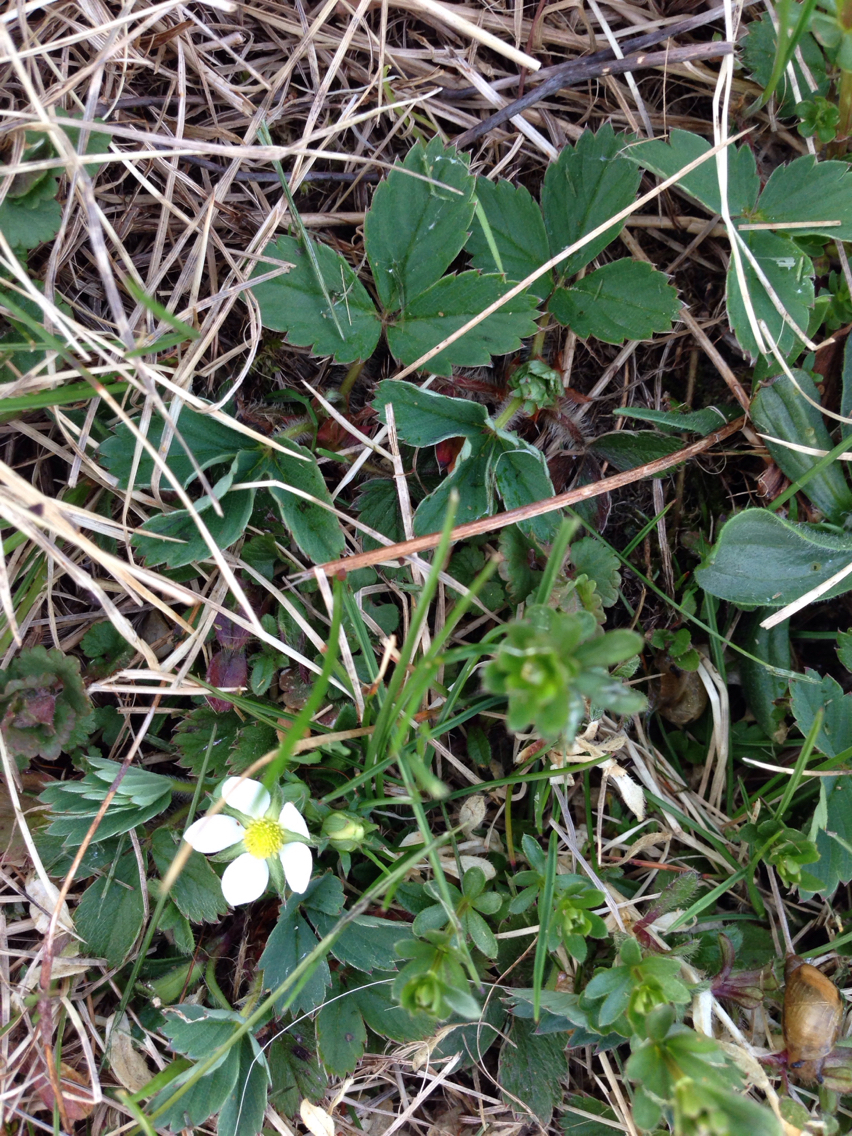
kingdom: Plantae
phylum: Tracheophyta
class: Magnoliopsida
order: Rosales
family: Rosaceae
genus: Fragaria
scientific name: Fragaria virginiana
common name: Thickleaved wild strawberry
